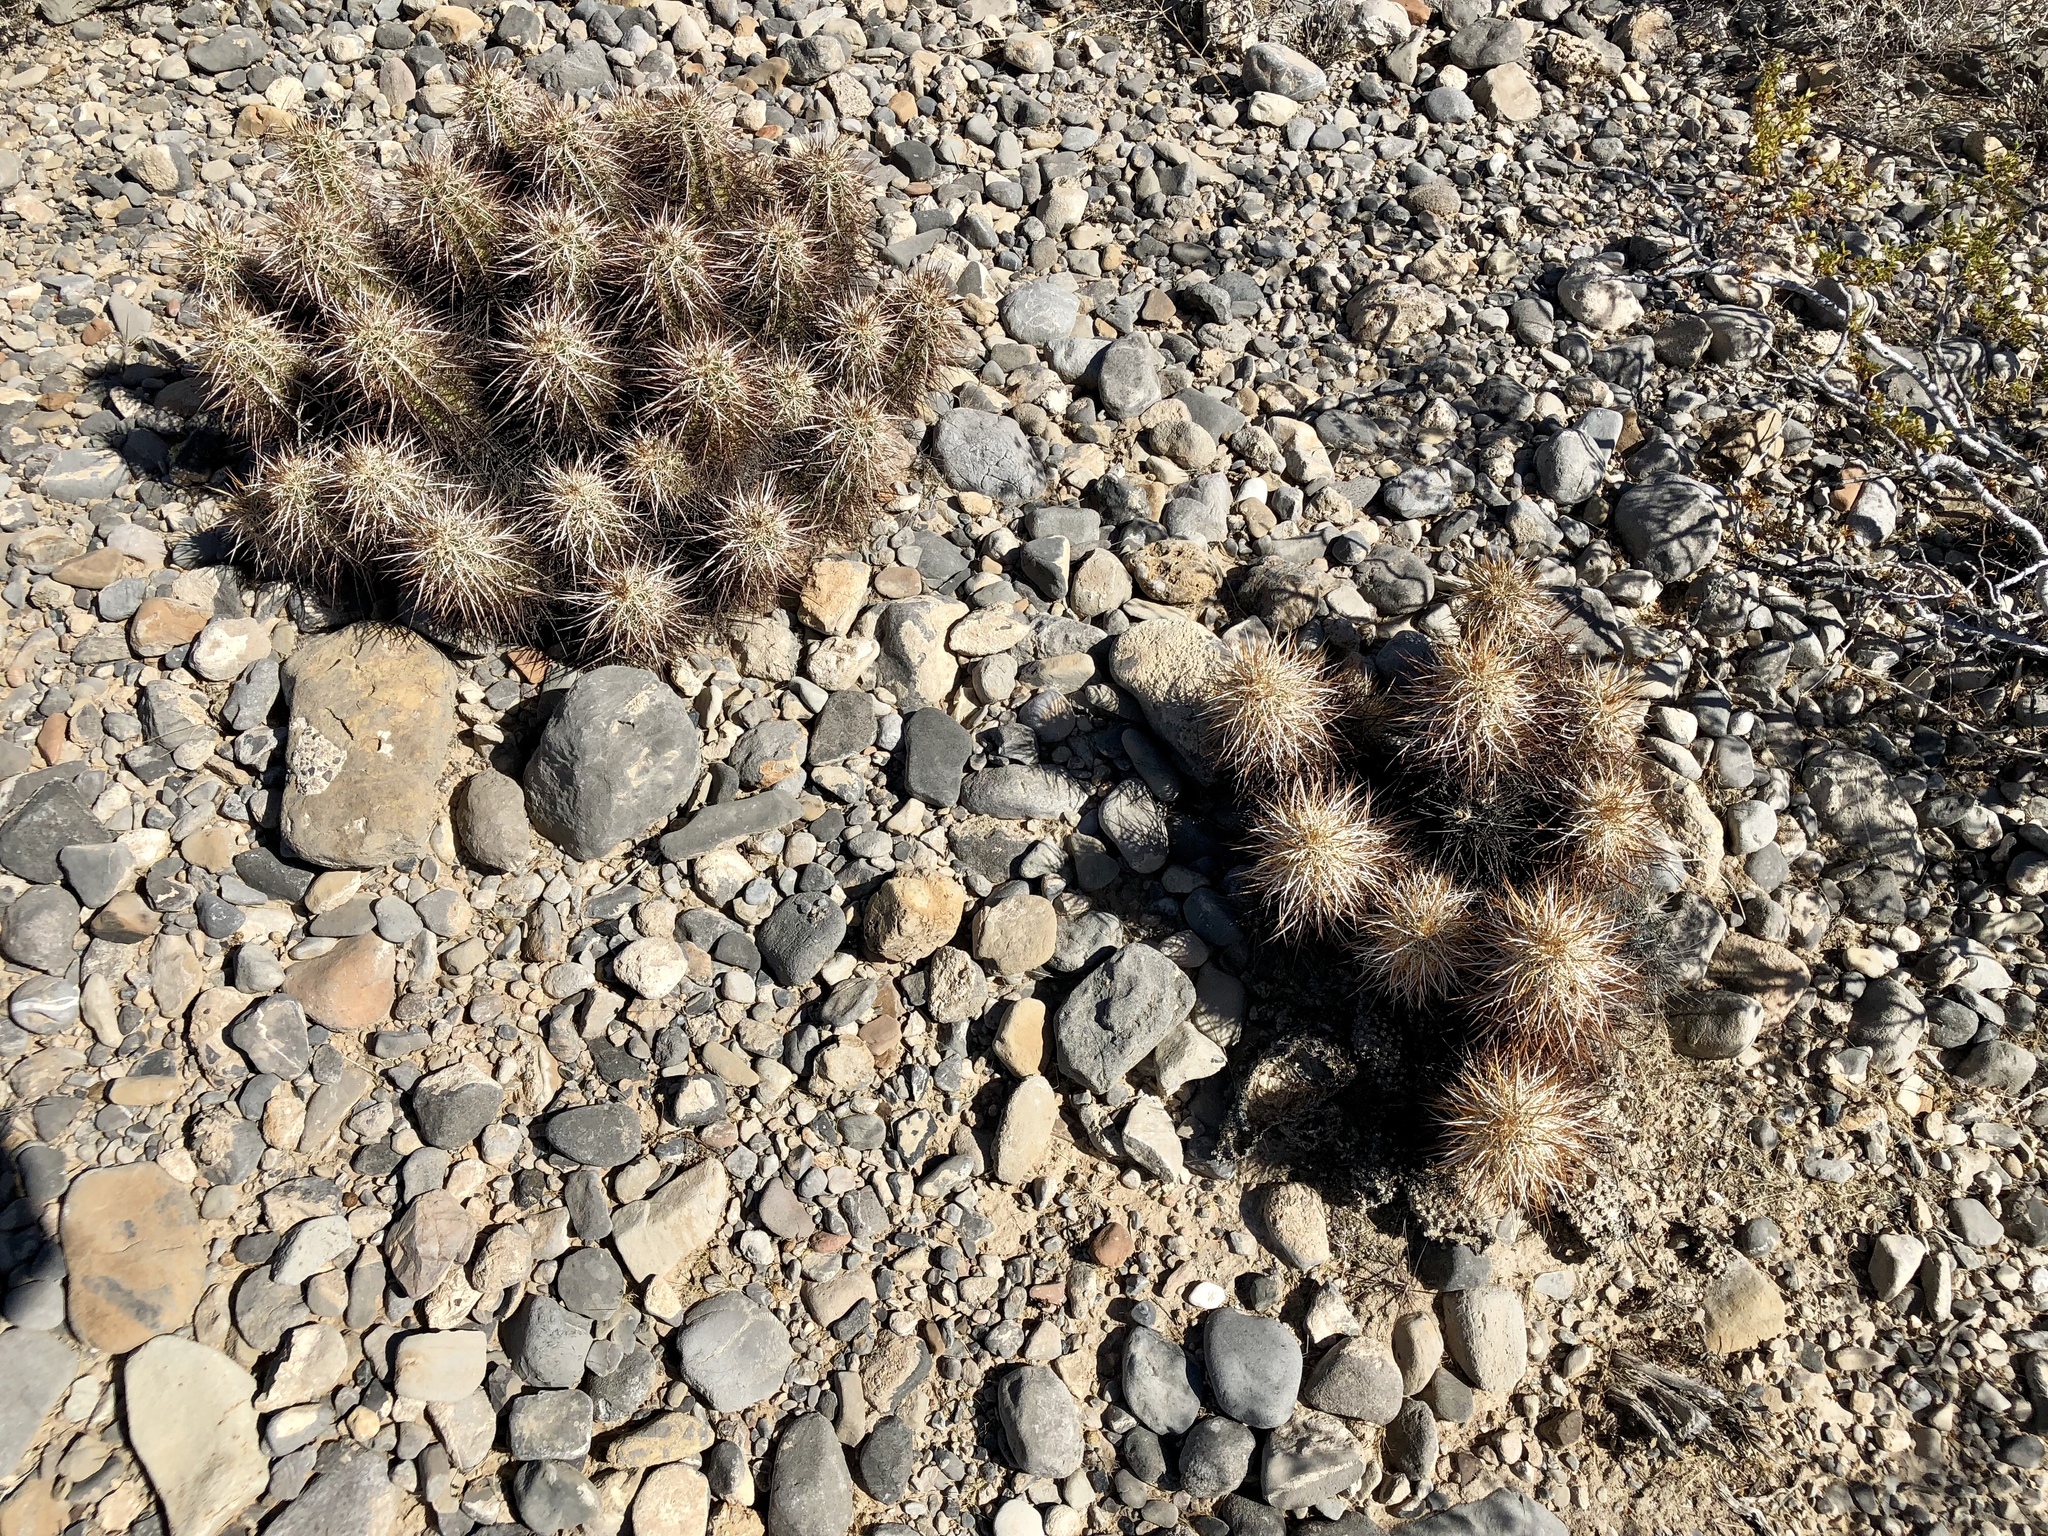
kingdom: Plantae
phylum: Tracheophyta
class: Magnoliopsida
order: Caryophyllales
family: Cactaceae
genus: Echinocereus
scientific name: Echinocereus engelmannii
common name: Engelmann's hedgehog cactus
